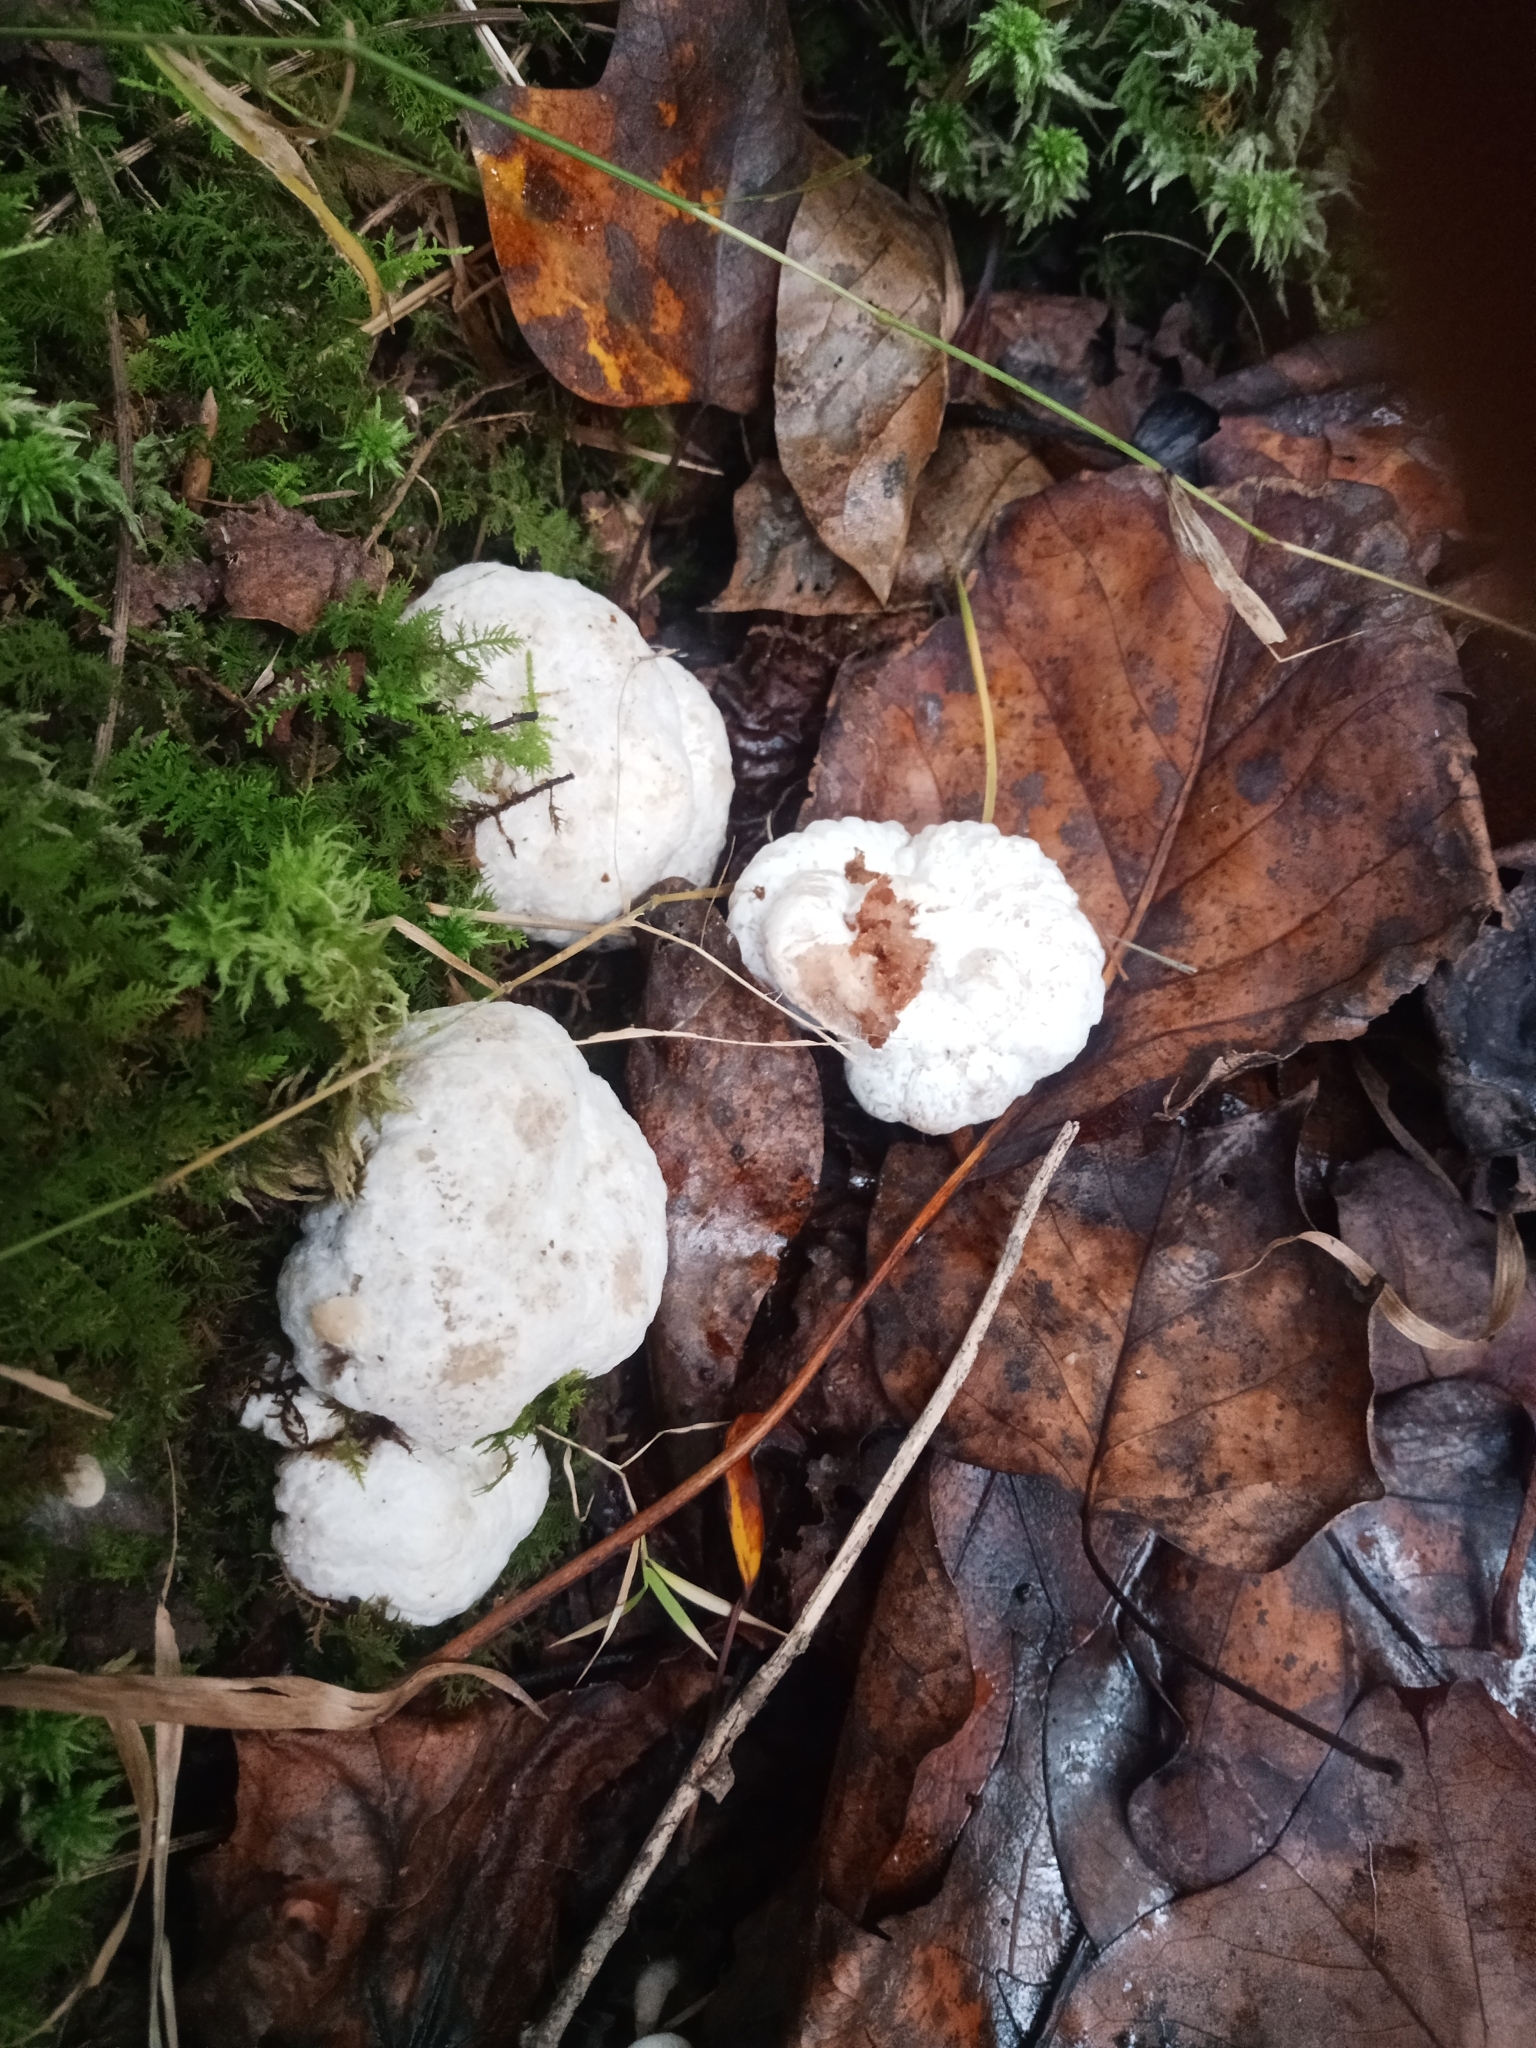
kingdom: Fungi
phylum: Basidiomycota
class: Agaricomycetes
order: Agaricales
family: Entolomataceae
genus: Entoloma
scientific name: Entoloma abortivum
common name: Aborted entoloma
